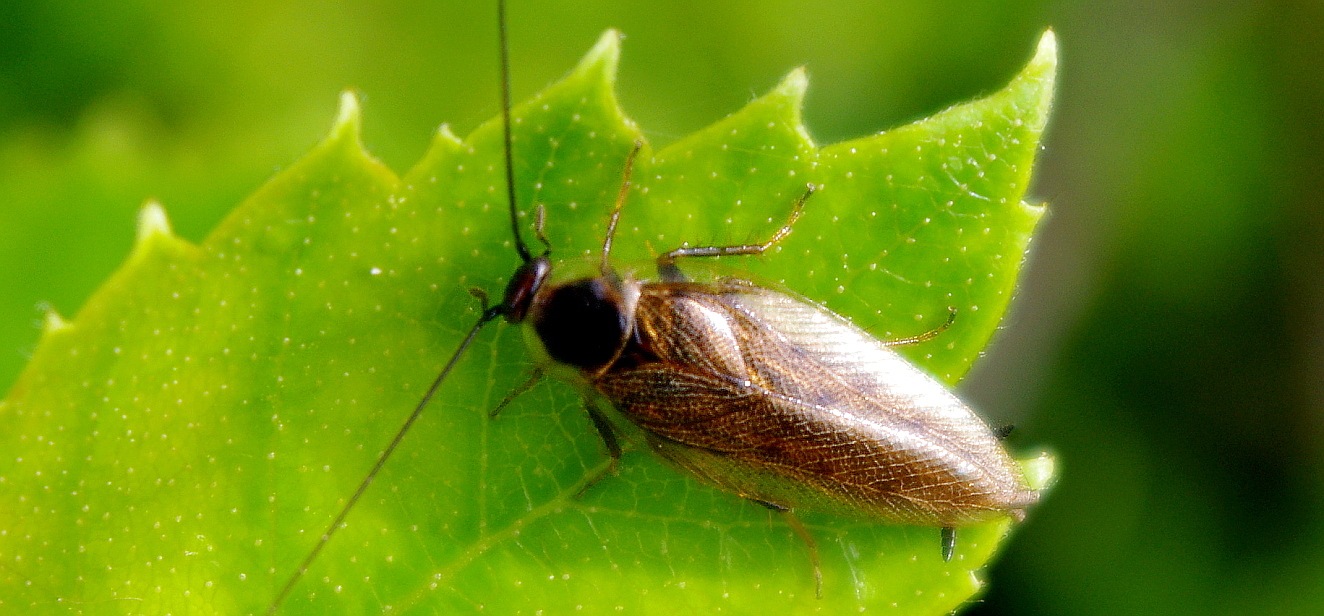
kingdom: Plantae
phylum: Tracheophyta
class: Magnoliopsida
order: Fagales
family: Betulaceae
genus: Betula
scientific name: Betula pendula
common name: Silver birch
